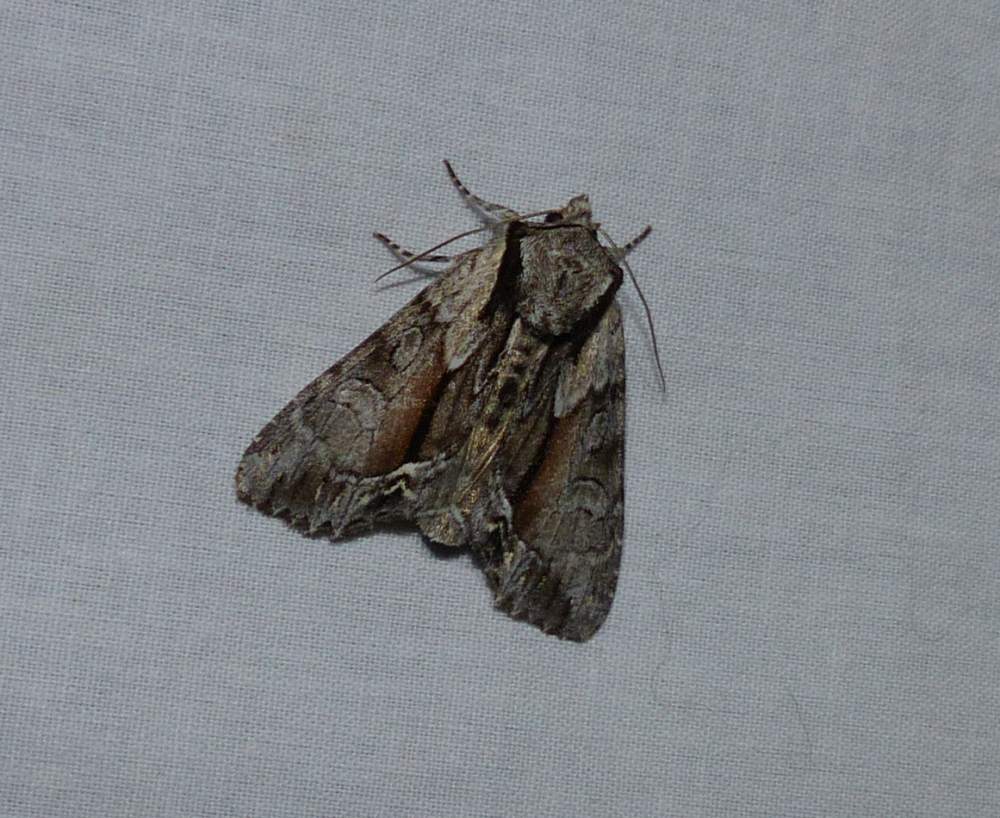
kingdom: Animalia
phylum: Arthropoda
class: Insecta
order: Lepidoptera
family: Noctuidae
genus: Hyppa
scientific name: Hyppa xylinoides
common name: Common hyppa moth
